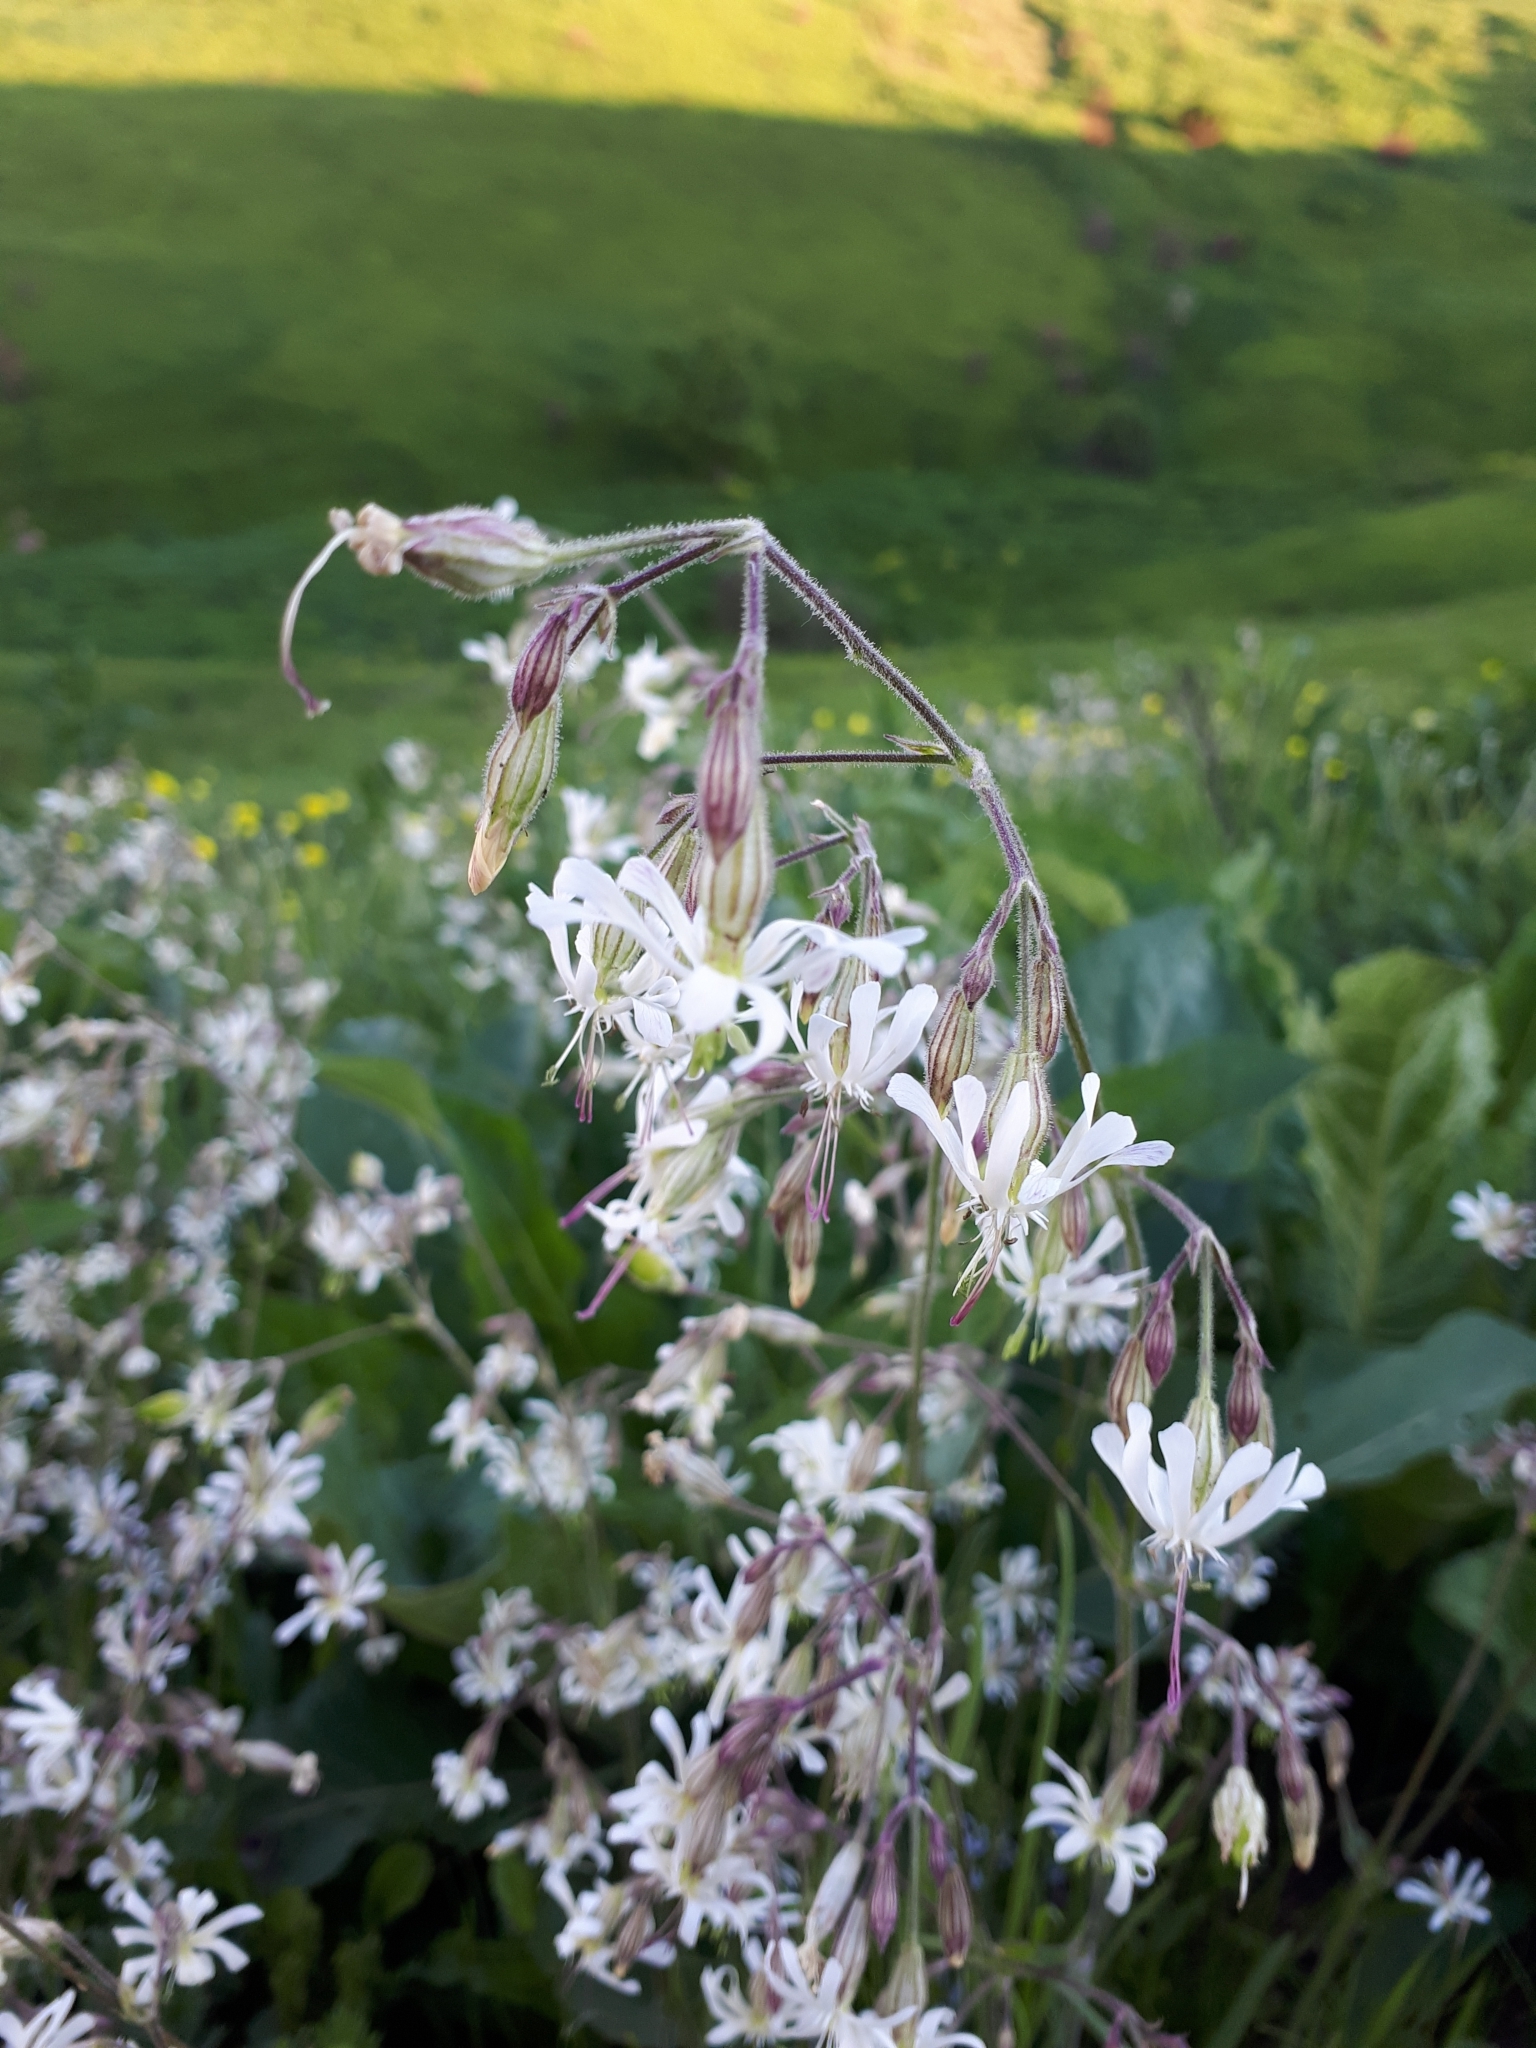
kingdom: Plantae
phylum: Tracheophyta
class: Magnoliopsida
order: Caryophyllales
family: Caryophyllaceae
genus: Silene
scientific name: Silene nutans
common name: Nottingham catchfly
